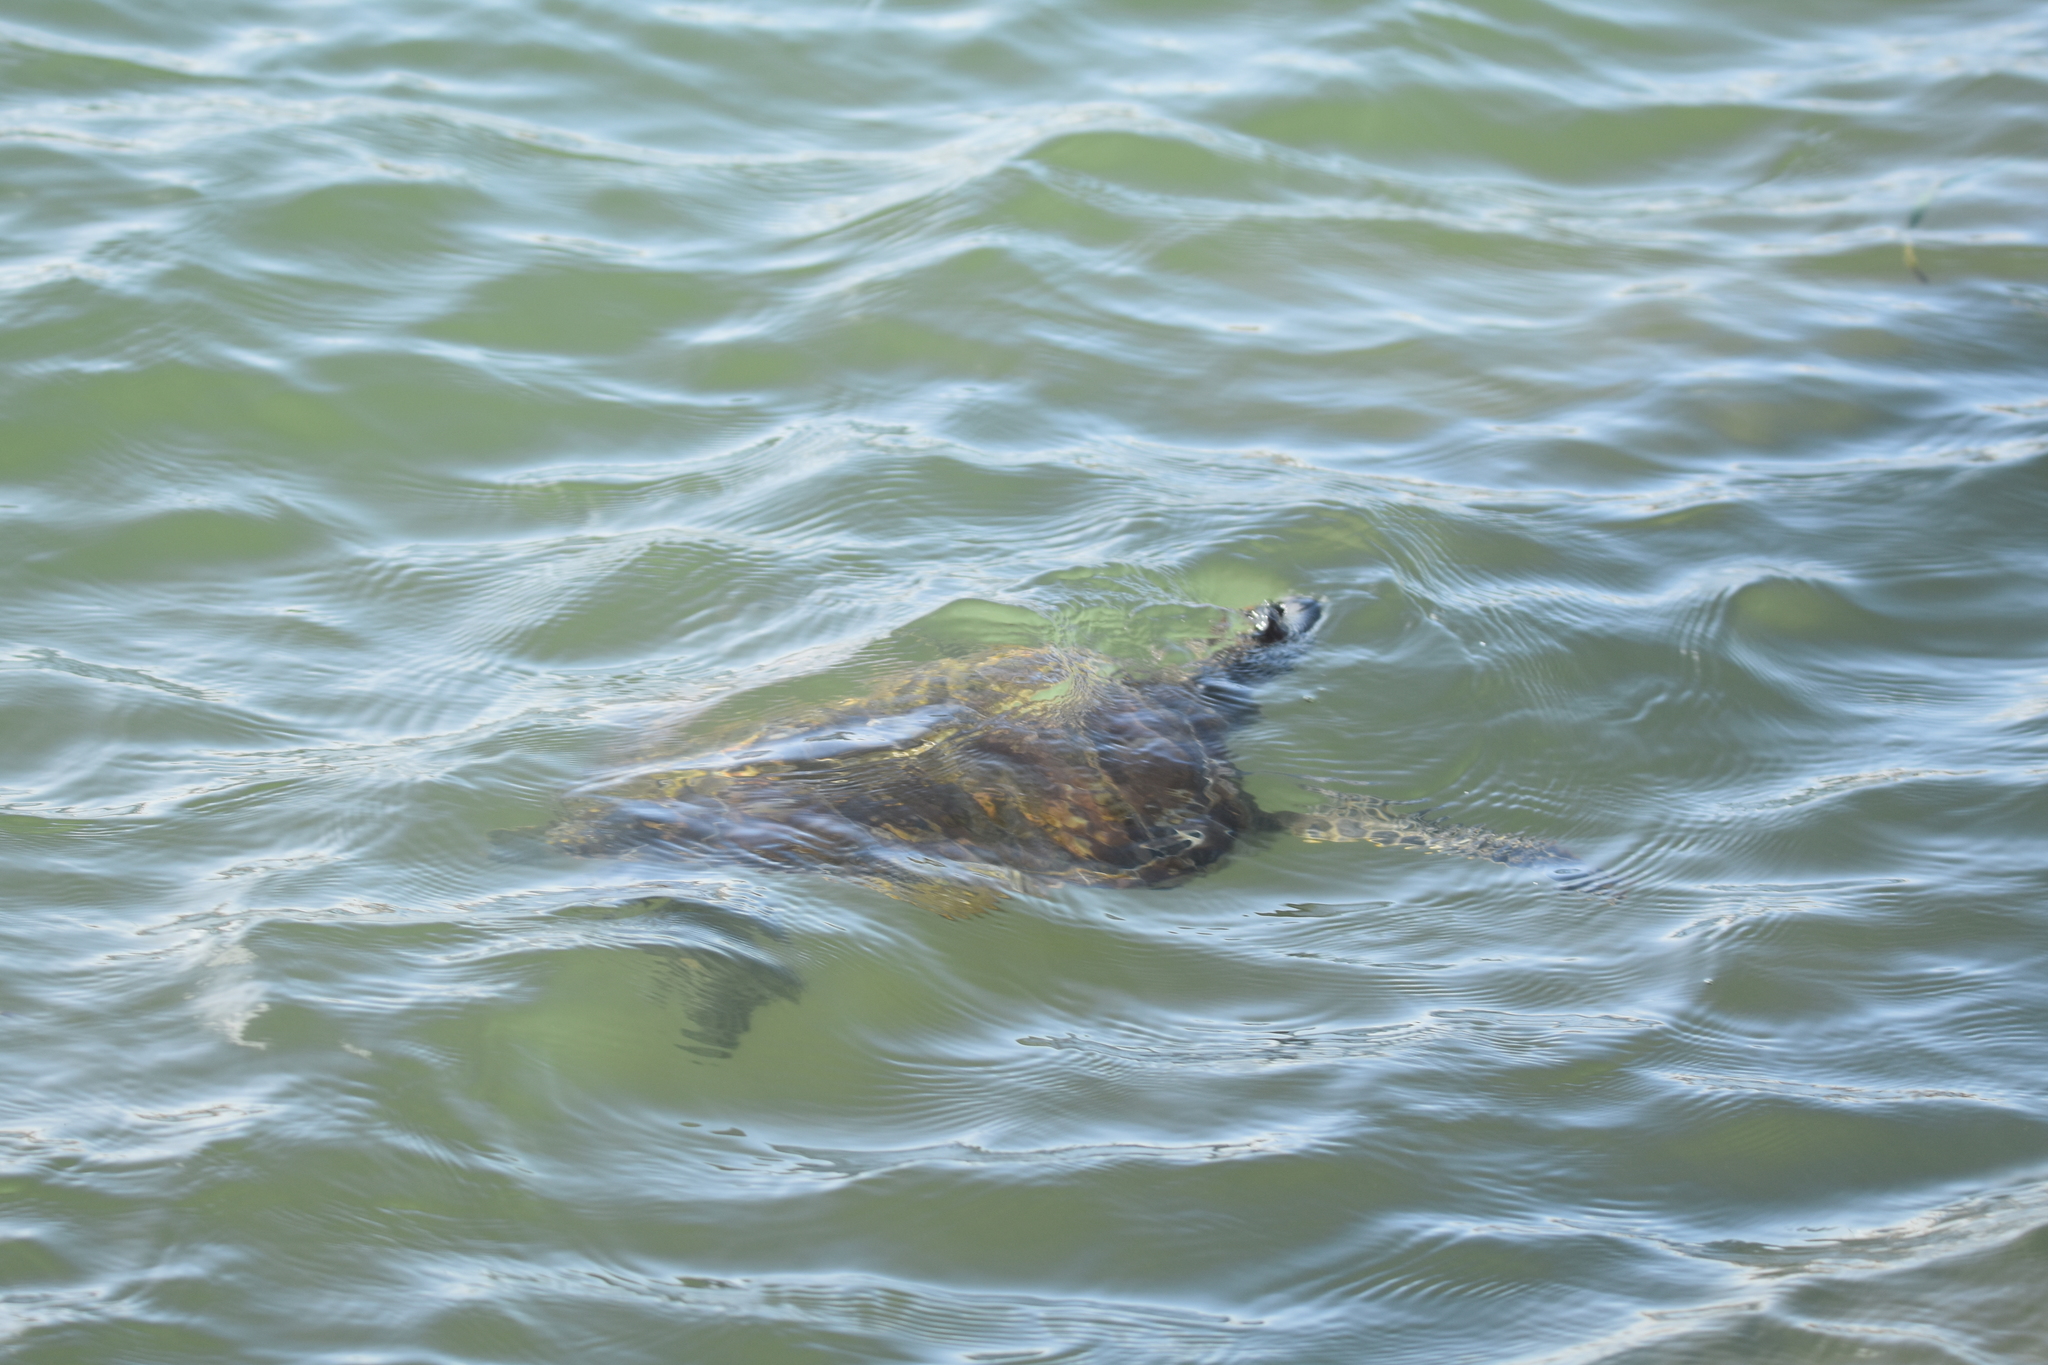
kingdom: Animalia
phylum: Chordata
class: Testudines
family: Cheloniidae
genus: Chelonia
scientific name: Chelonia mydas
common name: Green turtle
